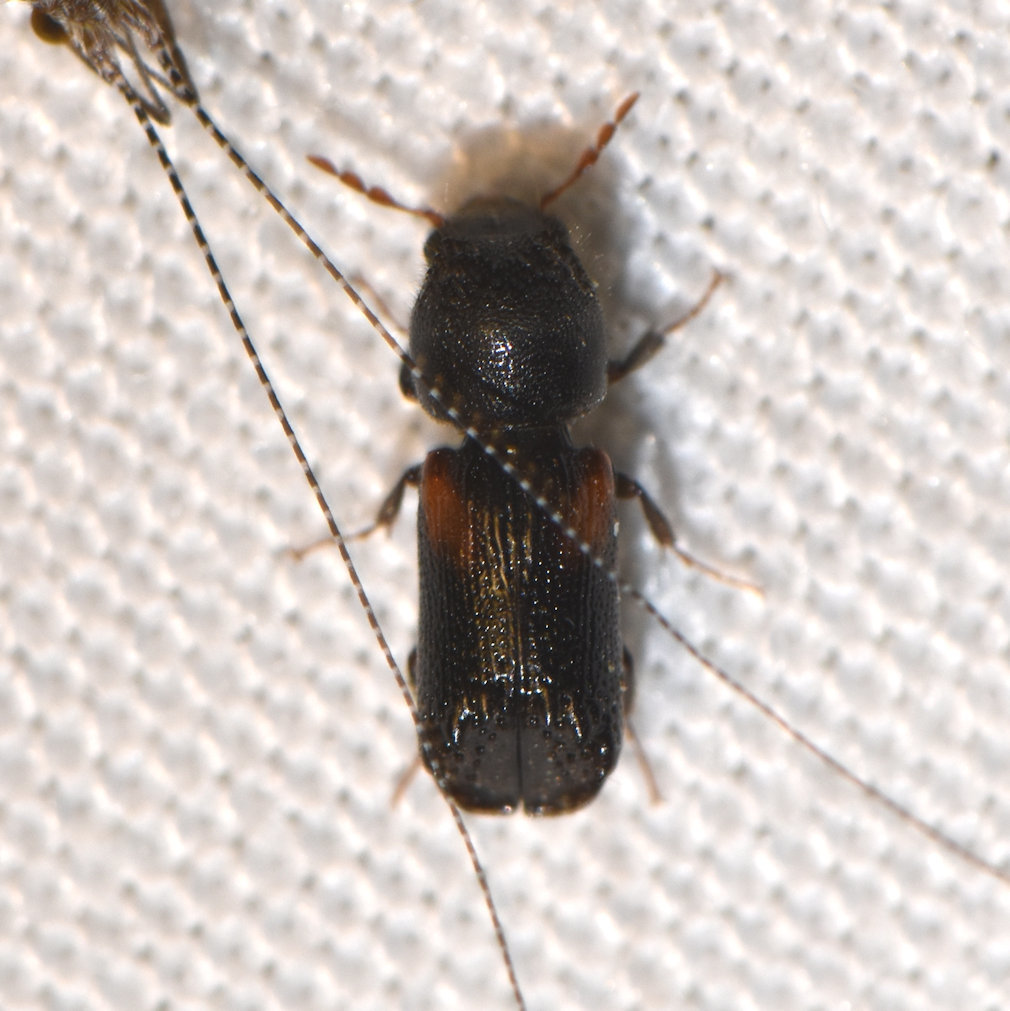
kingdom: Animalia
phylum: Arthropoda
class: Insecta
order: Coleoptera
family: Bostrichidae
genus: Xylobiops
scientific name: Xylobiops basilaris
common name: Red-shouldered bostrichid
